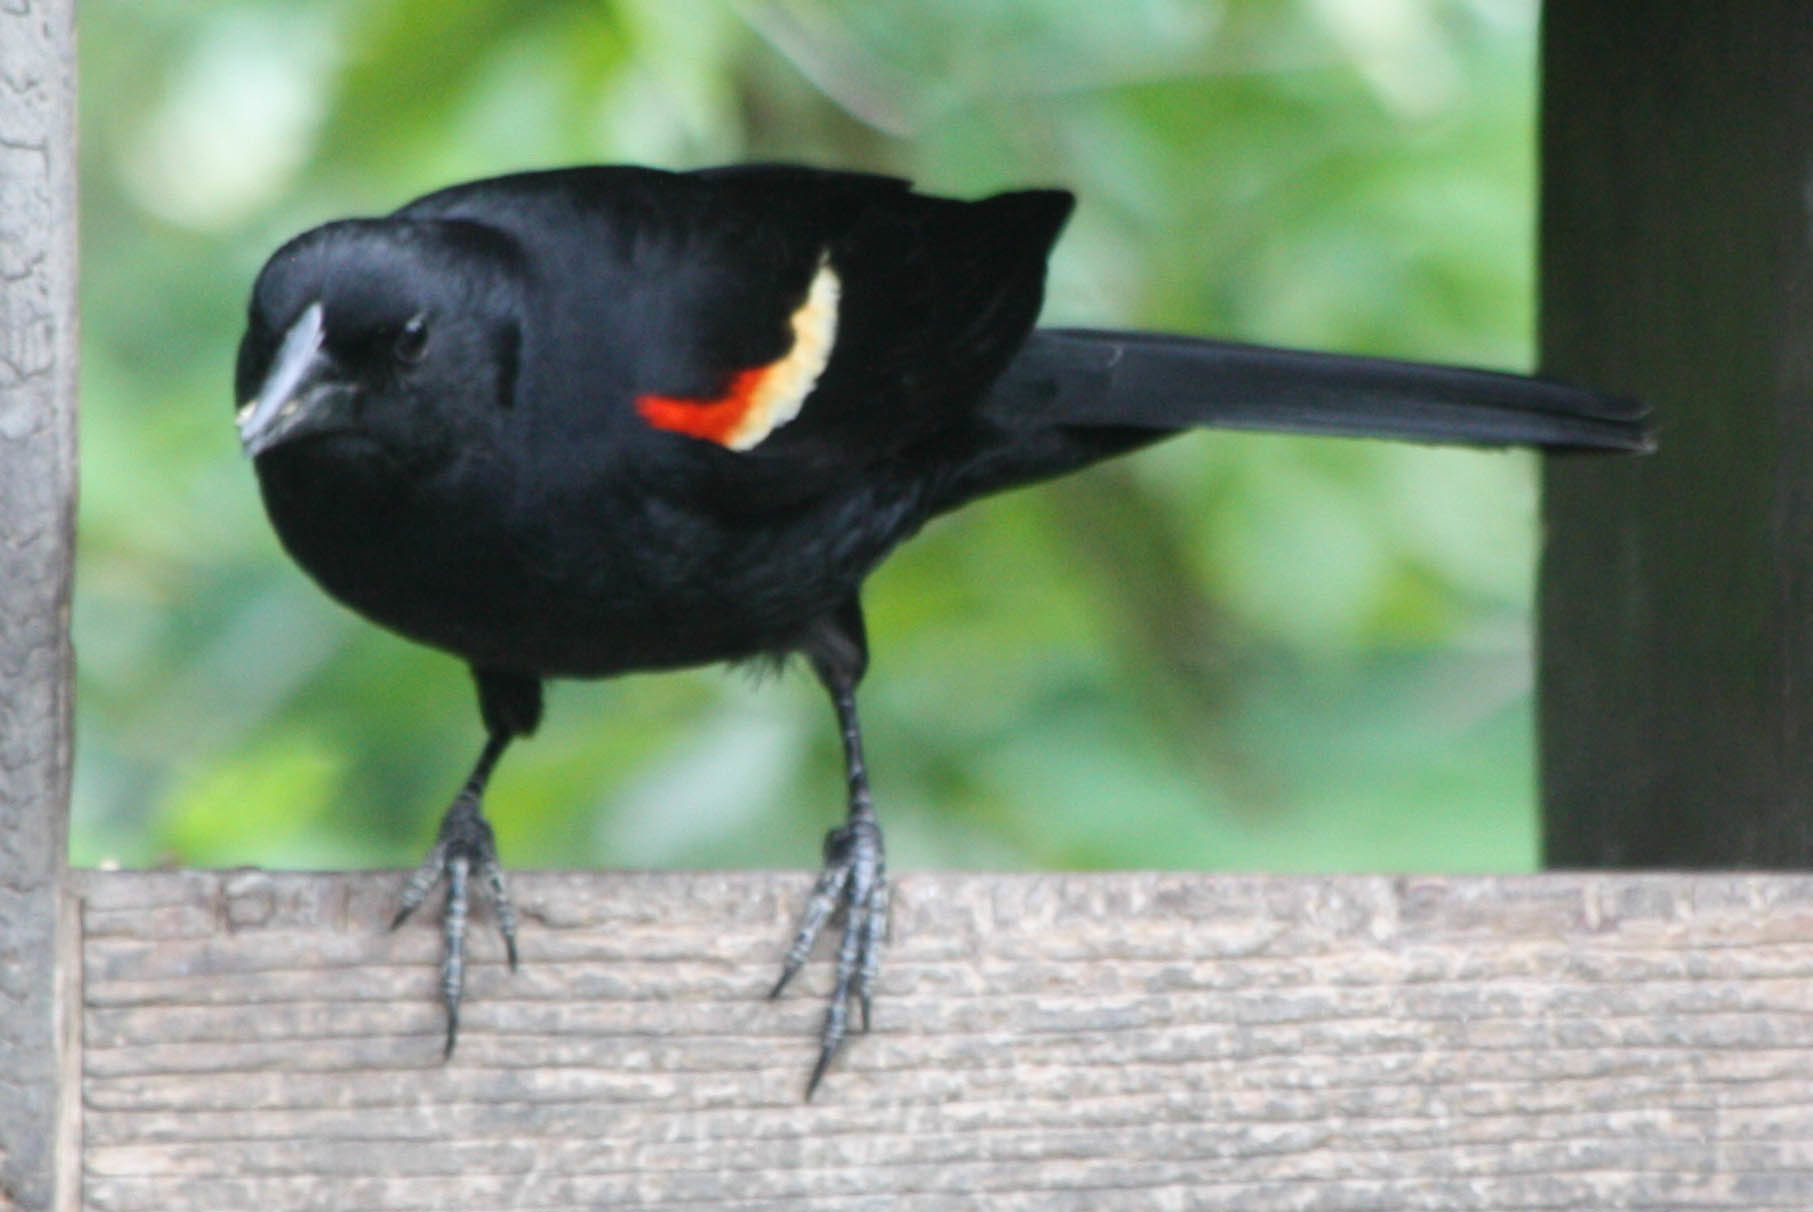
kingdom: Animalia
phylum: Chordata
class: Aves
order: Passeriformes
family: Icteridae
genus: Agelaius
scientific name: Agelaius phoeniceus
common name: Red-winged blackbird
